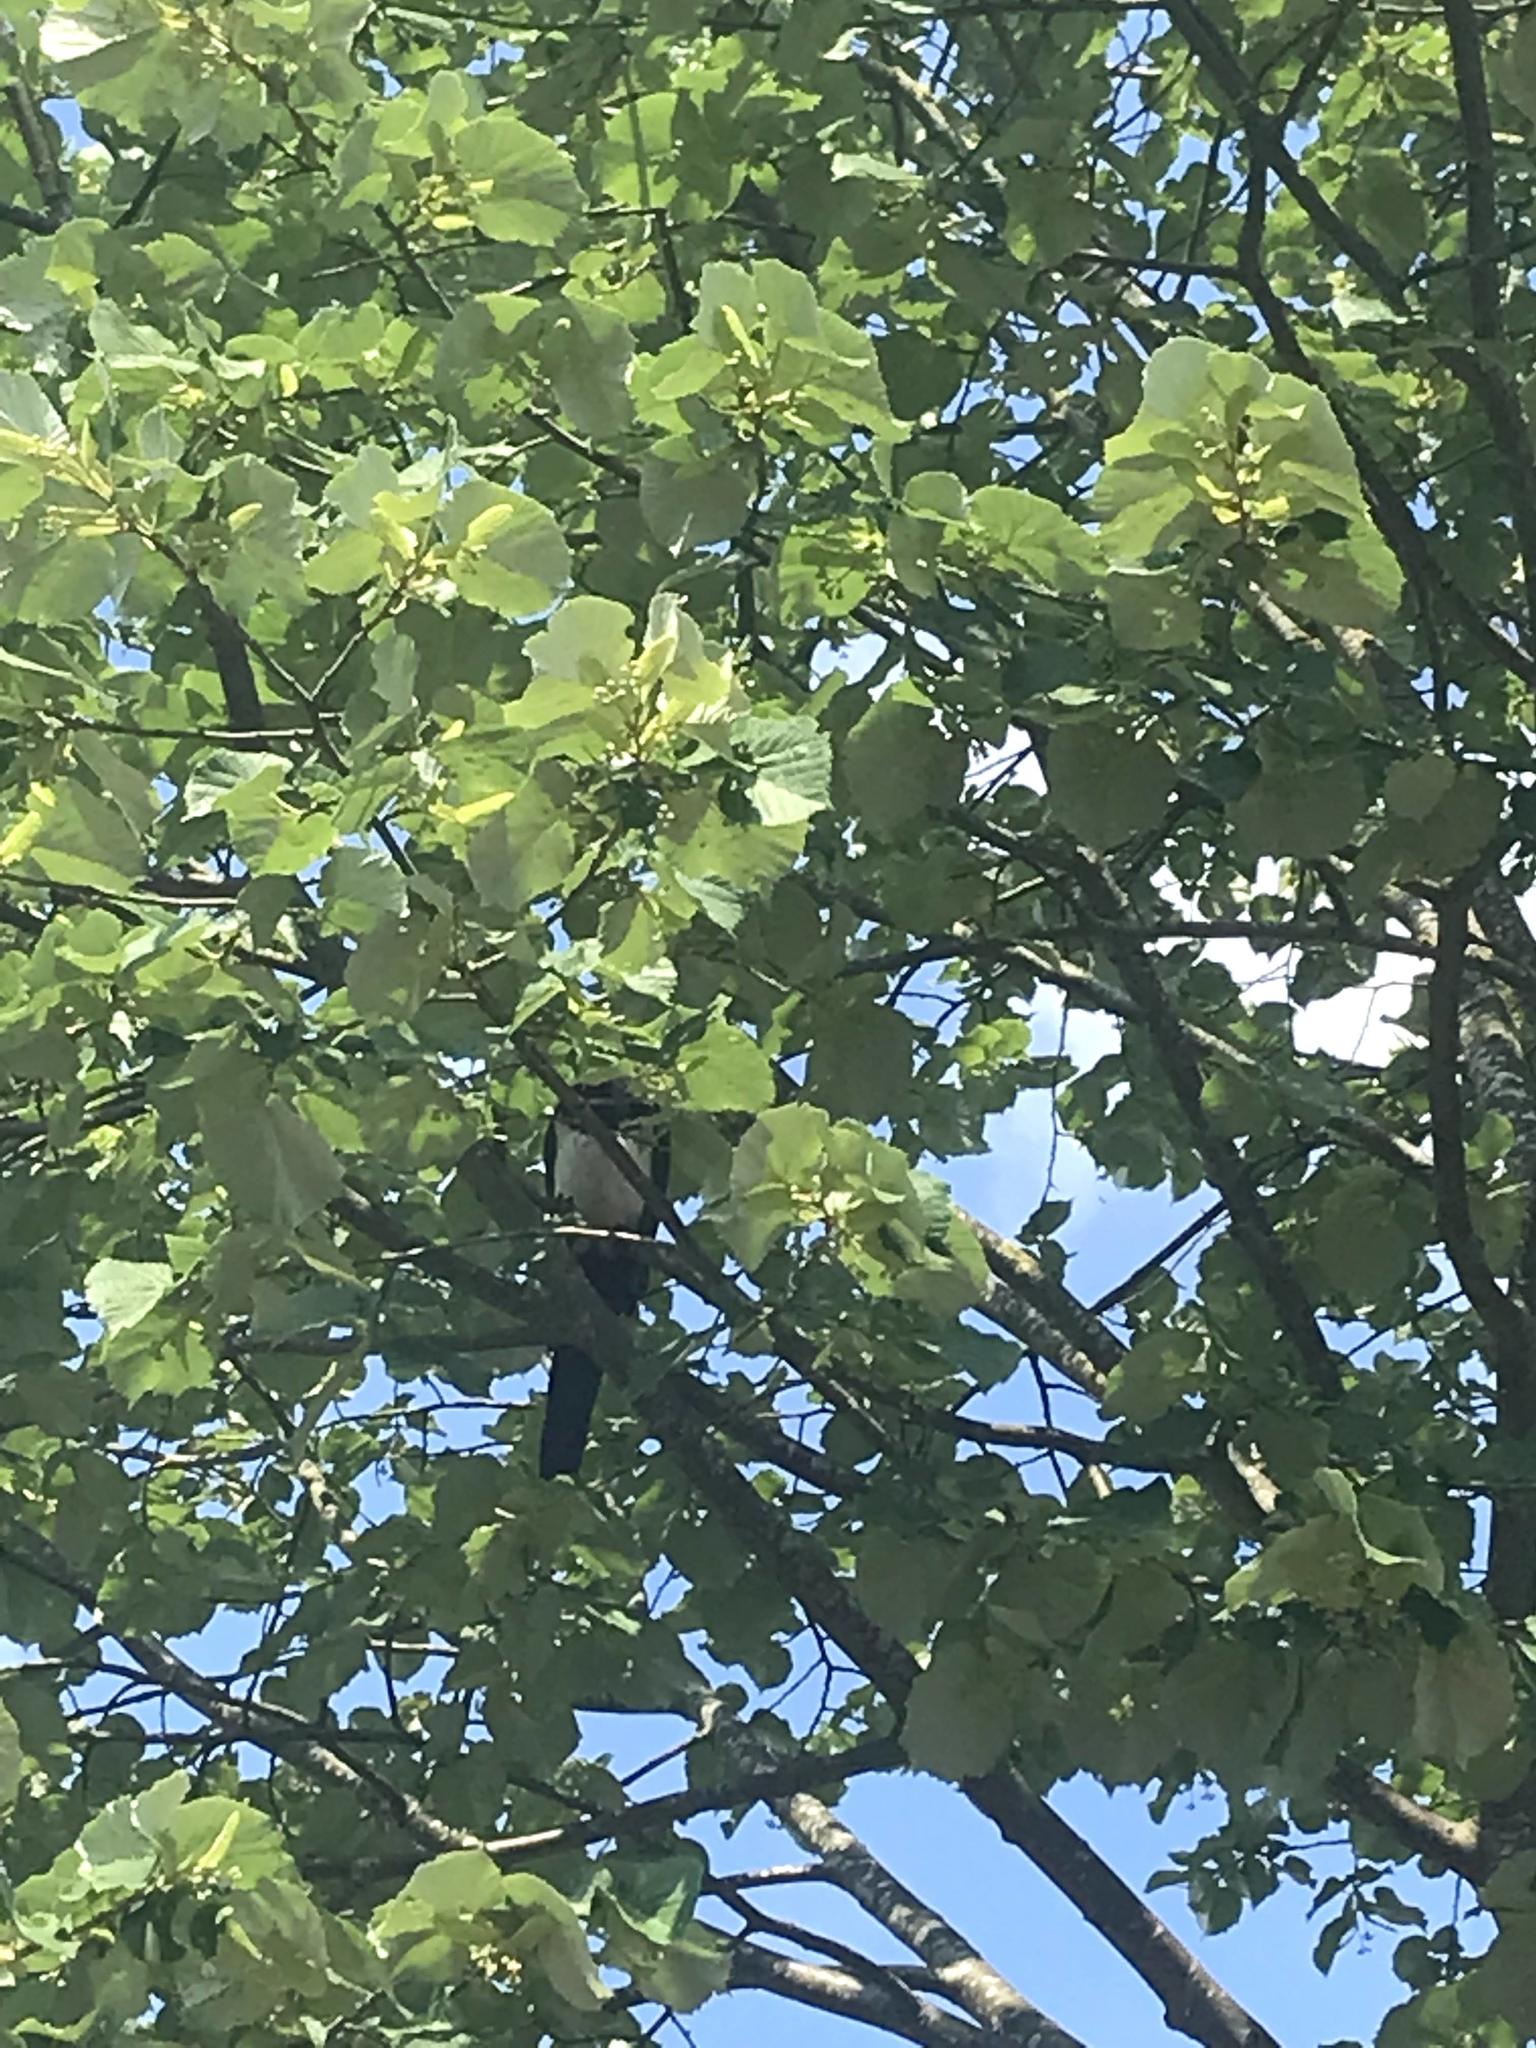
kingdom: Animalia
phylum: Chordata
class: Aves
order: Passeriformes
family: Corvidae
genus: Pica
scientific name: Pica pica
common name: Eurasian magpie
